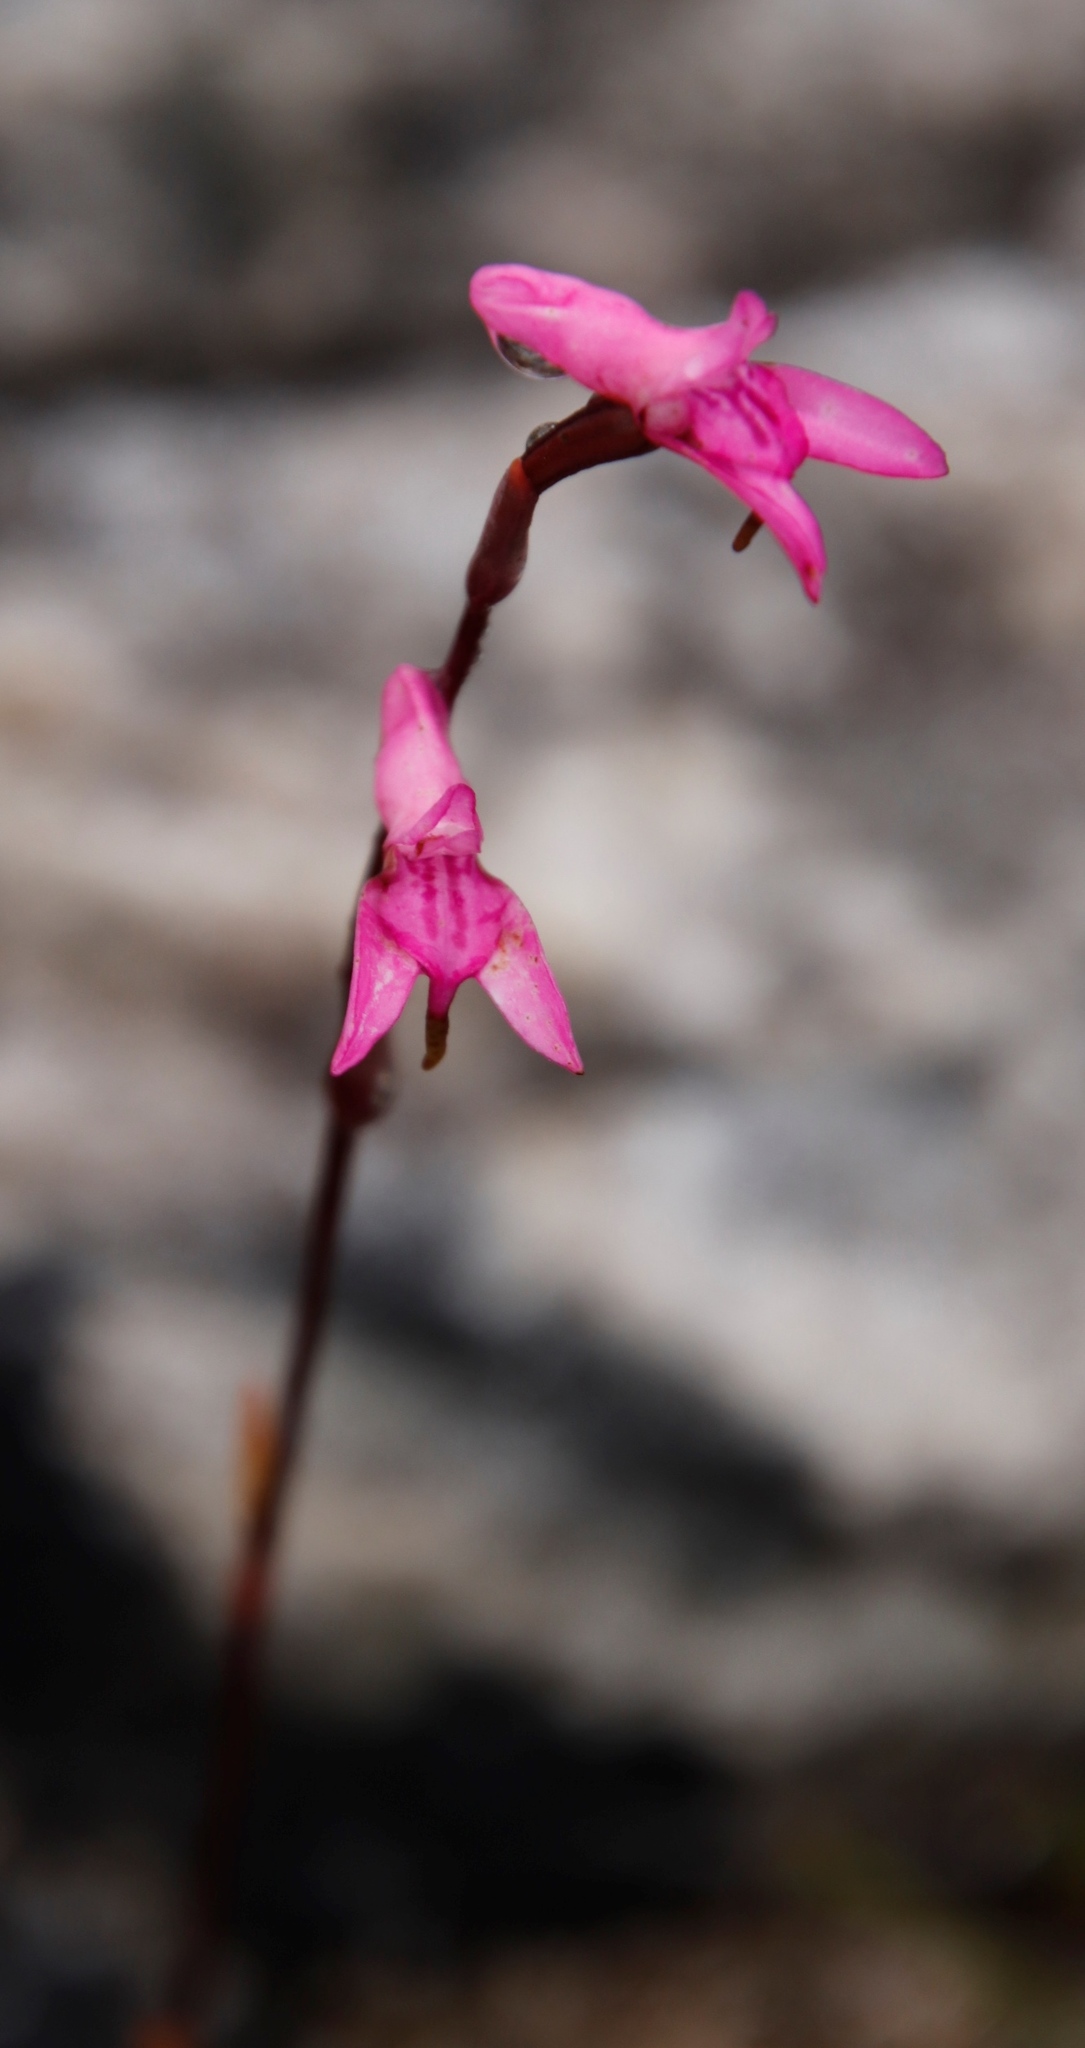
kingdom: Plantae
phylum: Tracheophyta
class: Liliopsida
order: Asparagales
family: Orchidaceae
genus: Disa
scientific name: Disa inflexa
